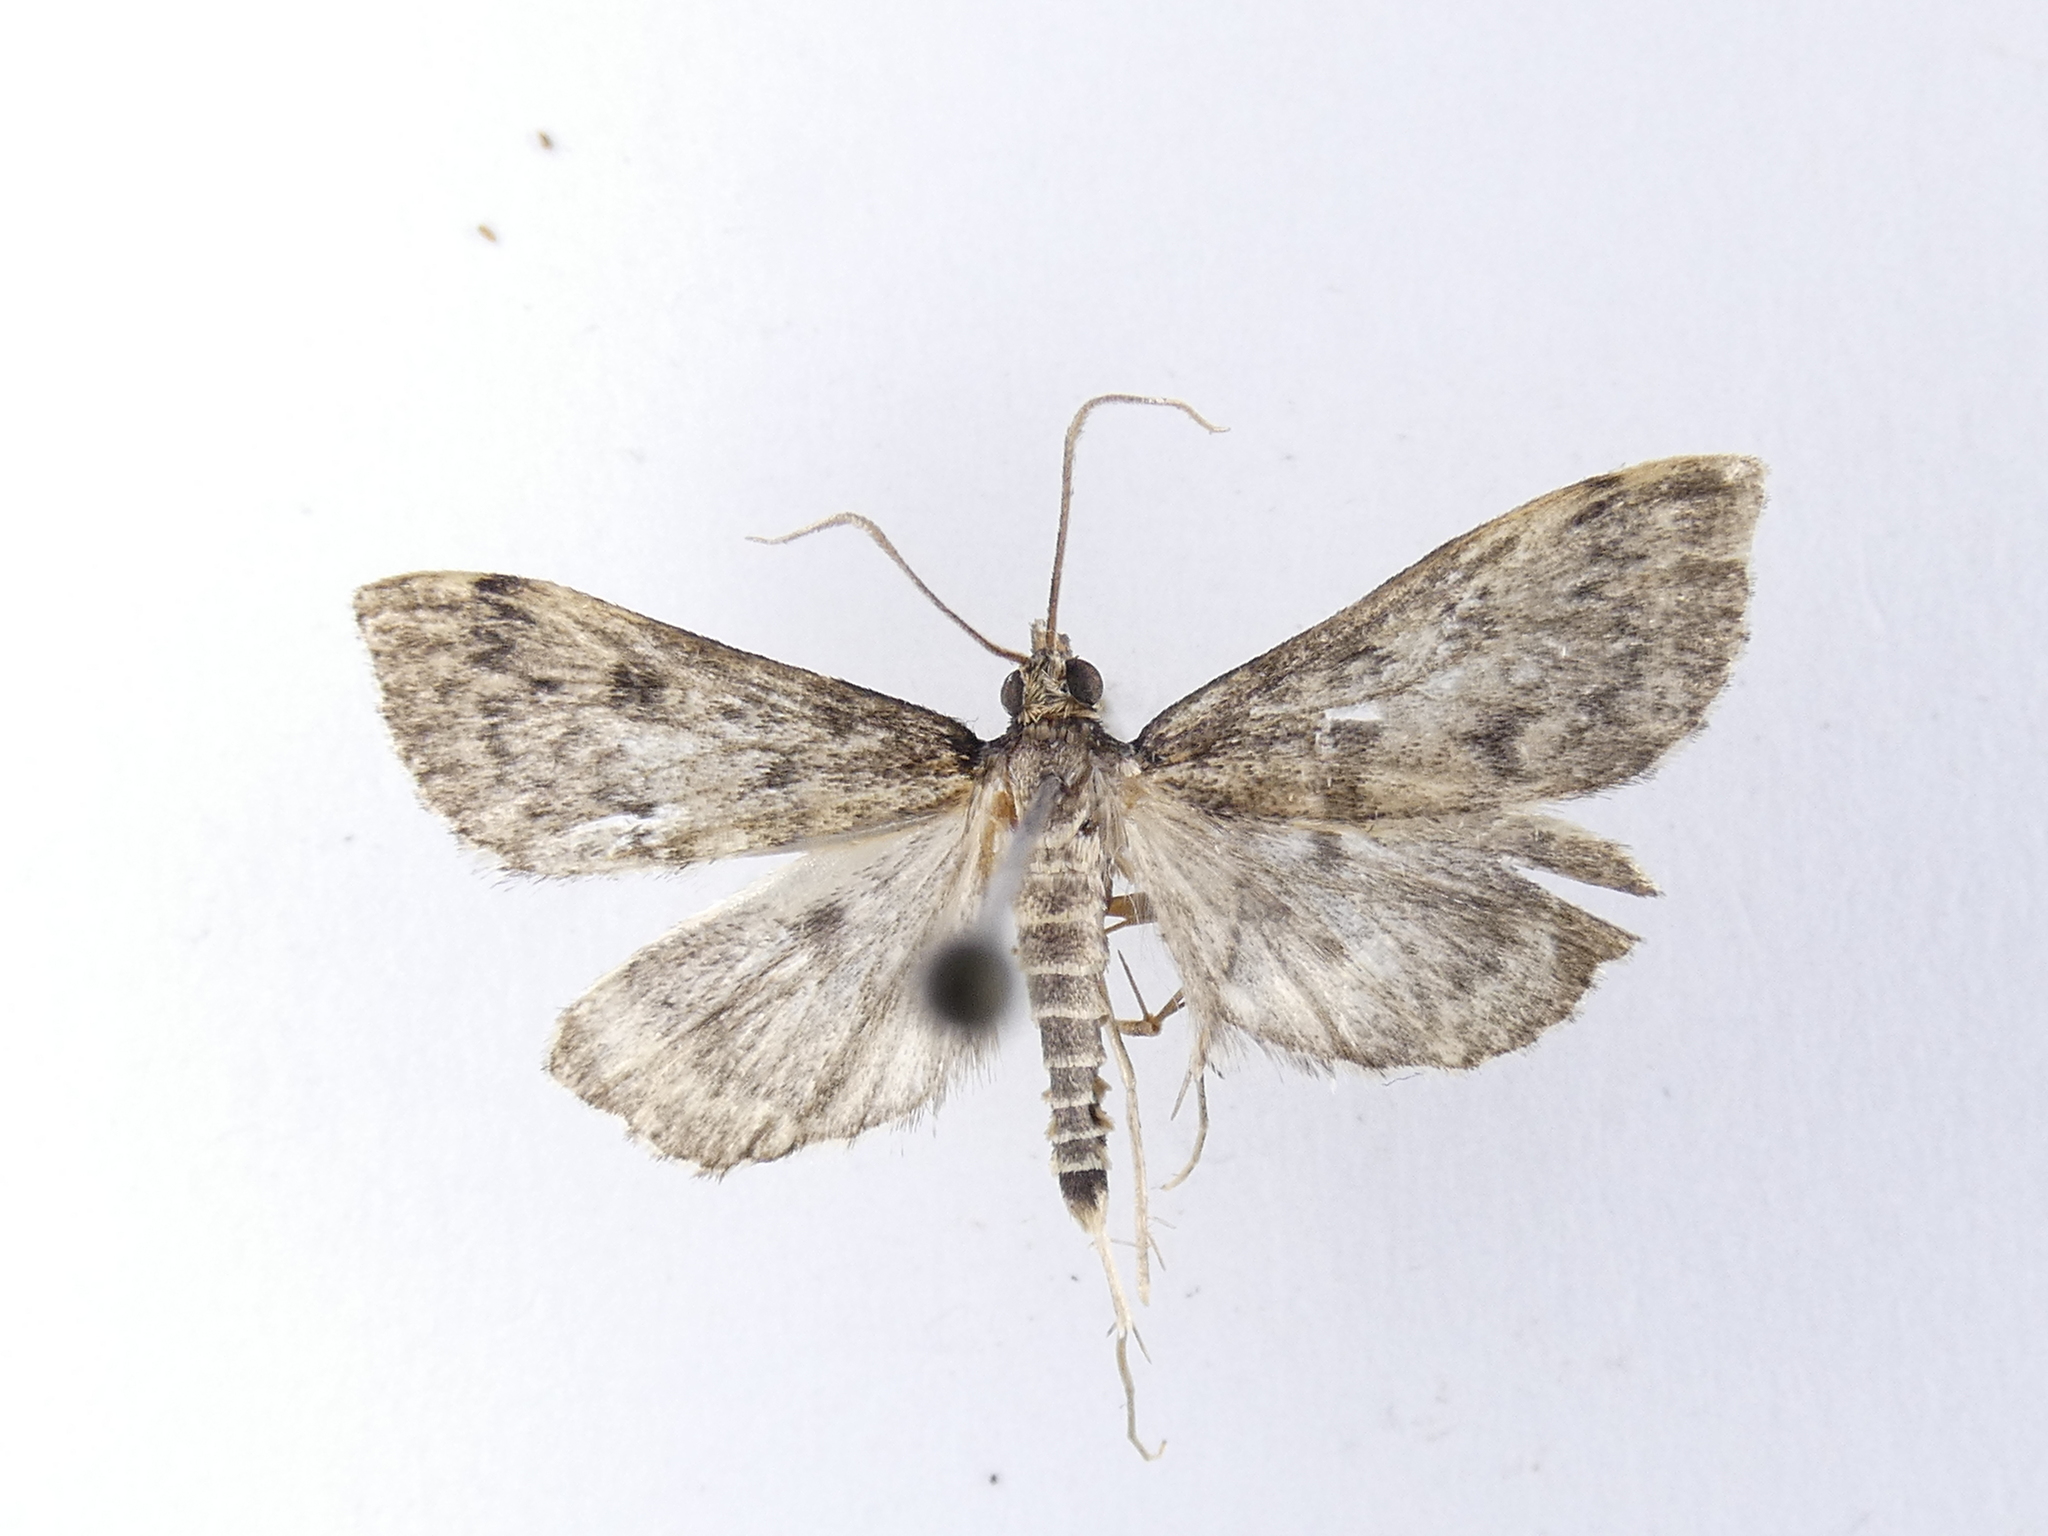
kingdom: Animalia
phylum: Arthropoda
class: Insecta
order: Lepidoptera
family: Crambidae
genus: Loxostege
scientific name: Loxostege Proternia philocapna
